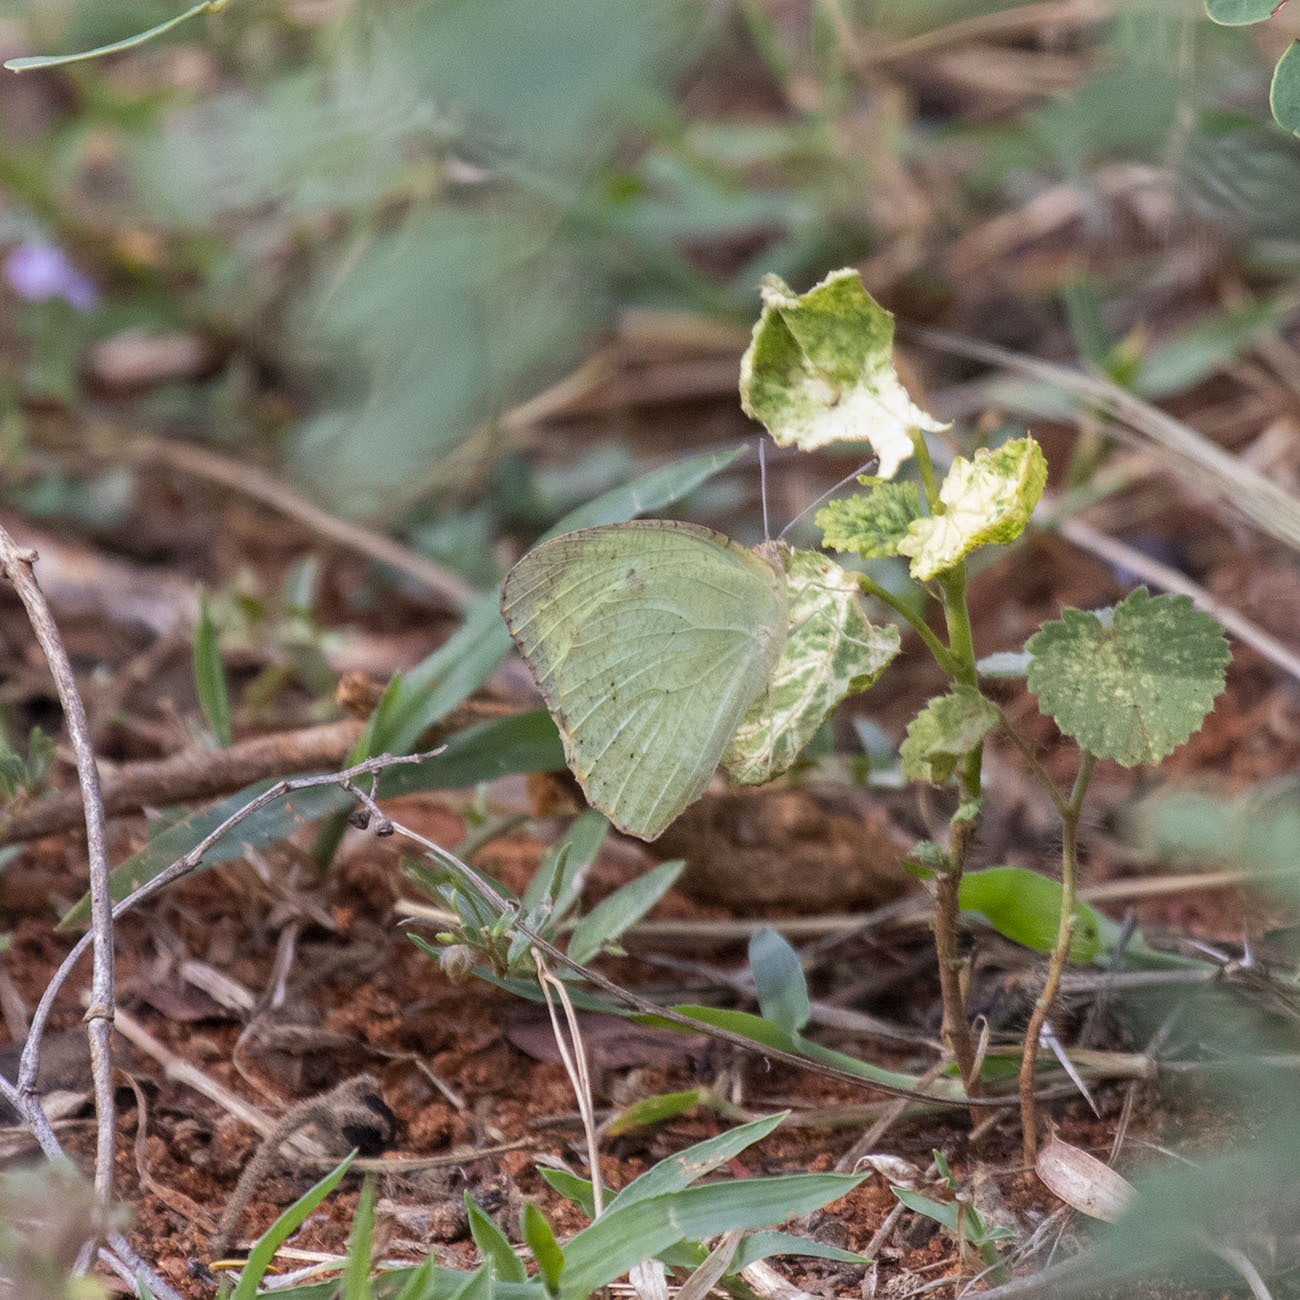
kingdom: Animalia
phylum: Arthropoda
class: Insecta
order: Lepidoptera
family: Pieridae
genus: Catopsilia
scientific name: Catopsilia pyranthe
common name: Mottled emigrant
